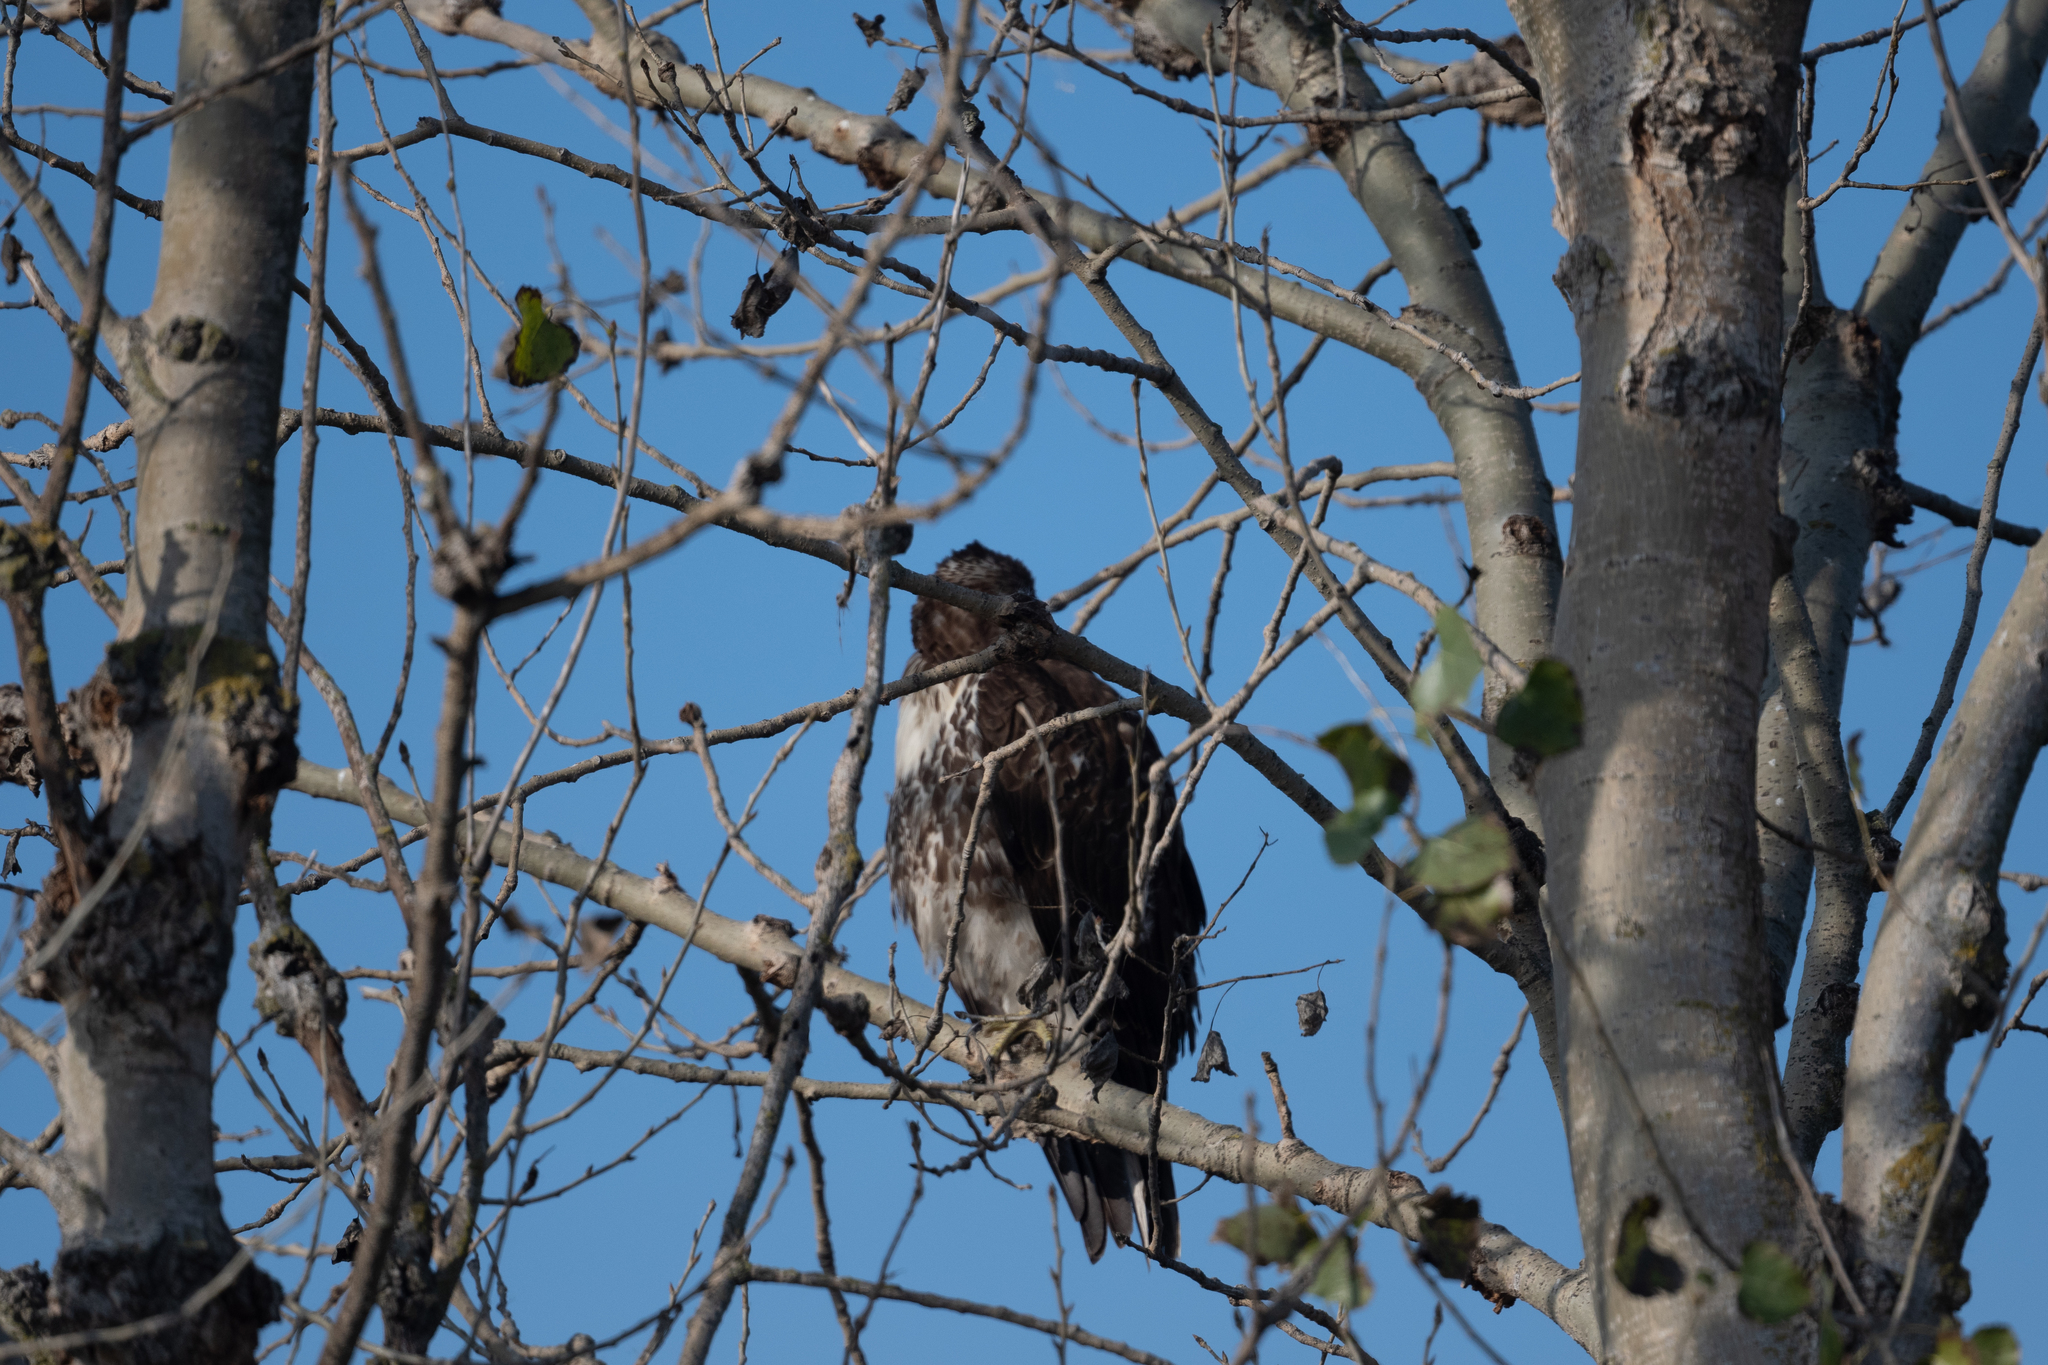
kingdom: Animalia
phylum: Chordata
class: Aves
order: Accipitriformes
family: Accipitridae
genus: Buteo
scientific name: Buteo jamaicensis
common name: Red-tailed hawk
